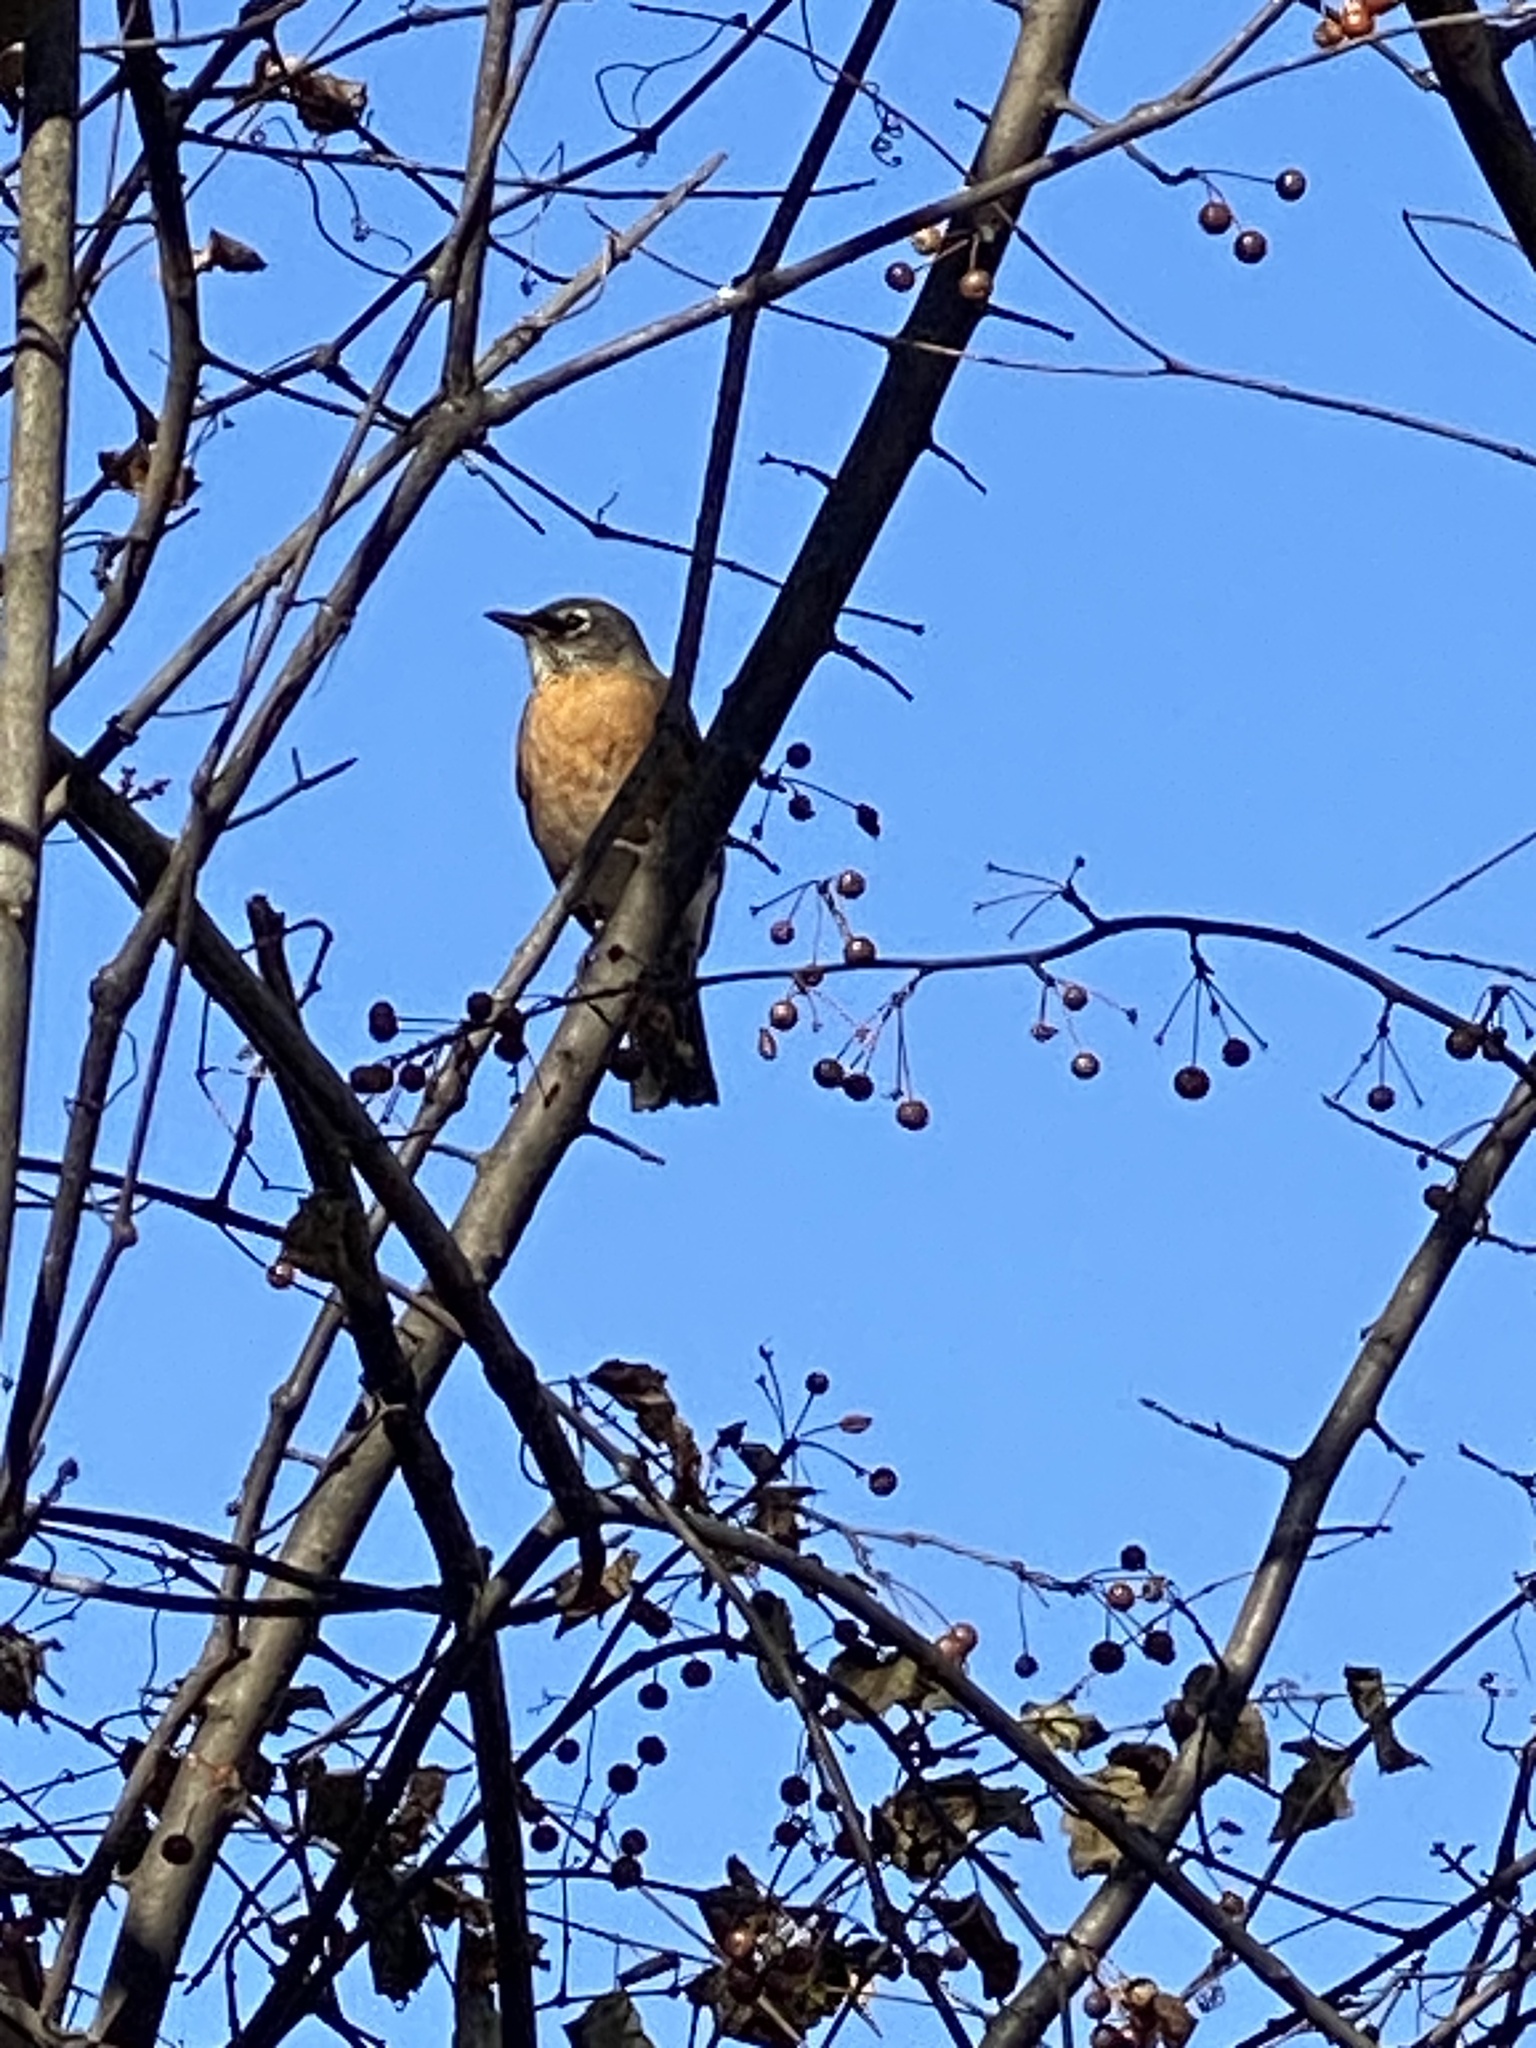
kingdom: Animalia
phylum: Chordata
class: Aves
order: Passeriformes
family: Turdidae
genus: Turdus
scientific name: Turdus migratorius
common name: American robin
